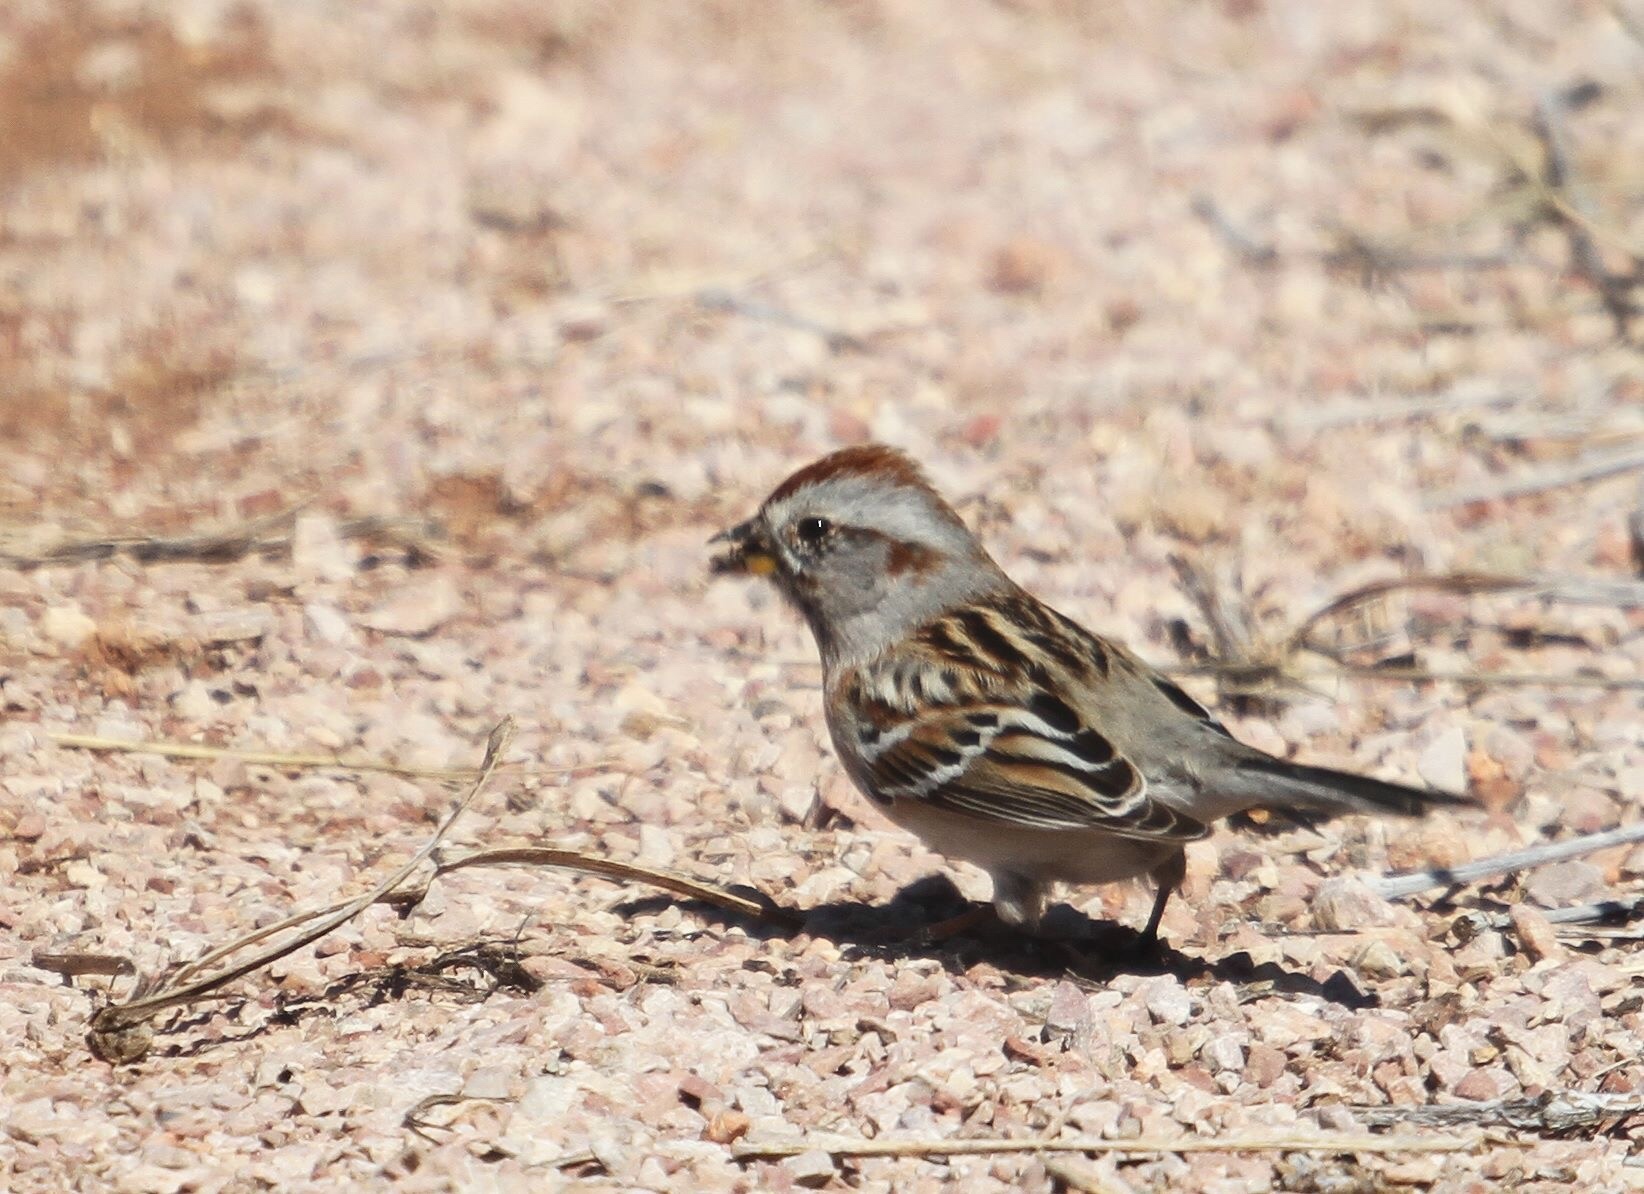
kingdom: Animalia
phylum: Chordata
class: Aves
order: Passeriformes
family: Passerellidae
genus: Spizelloides
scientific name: Spizelloides arborea
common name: American tree sparrow
